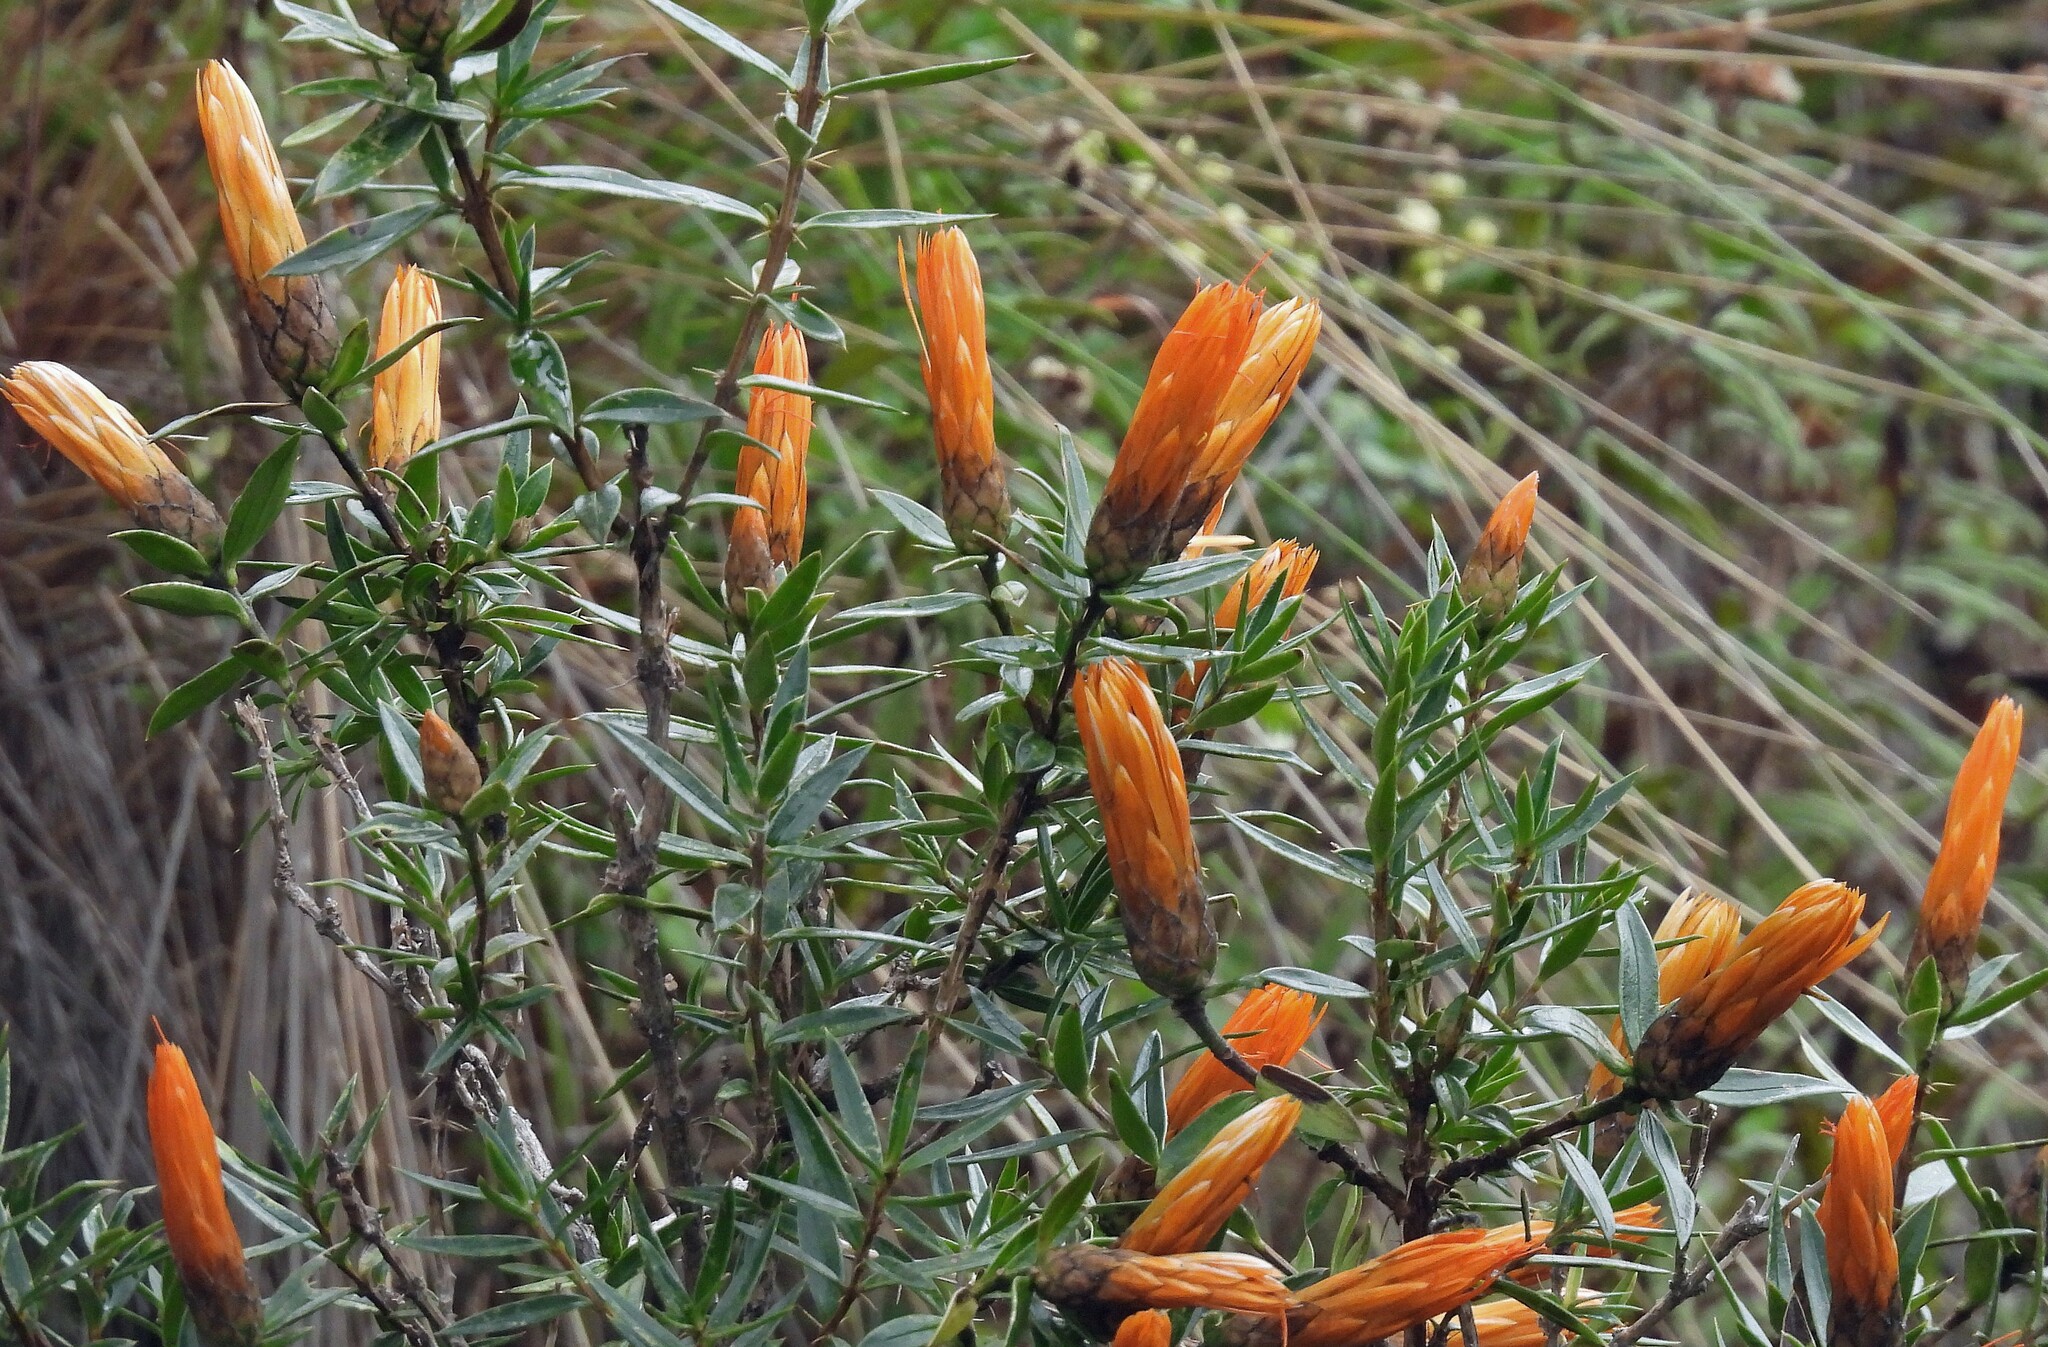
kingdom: Plantae
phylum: Tracheophyta
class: Magnoliopsida
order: Asterales
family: Asteraceae
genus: Chuquiraga
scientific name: Chuquiraga longiflora
